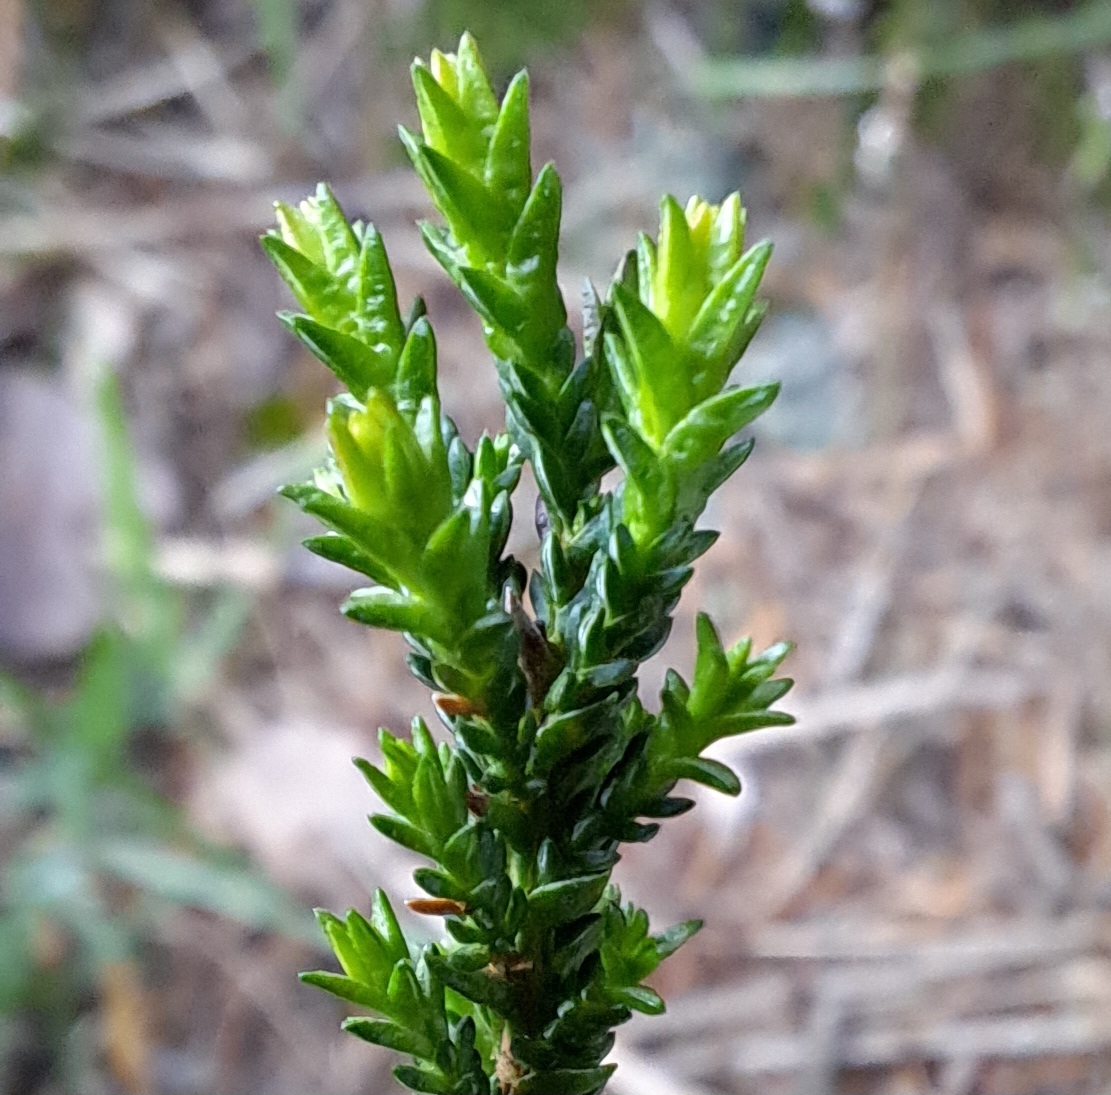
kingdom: Plantae
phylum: Tracheophyta
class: Magnoliopsida
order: Ericales
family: Ericaceae
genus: Calluna
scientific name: Calluna vulgaris
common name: Heather
